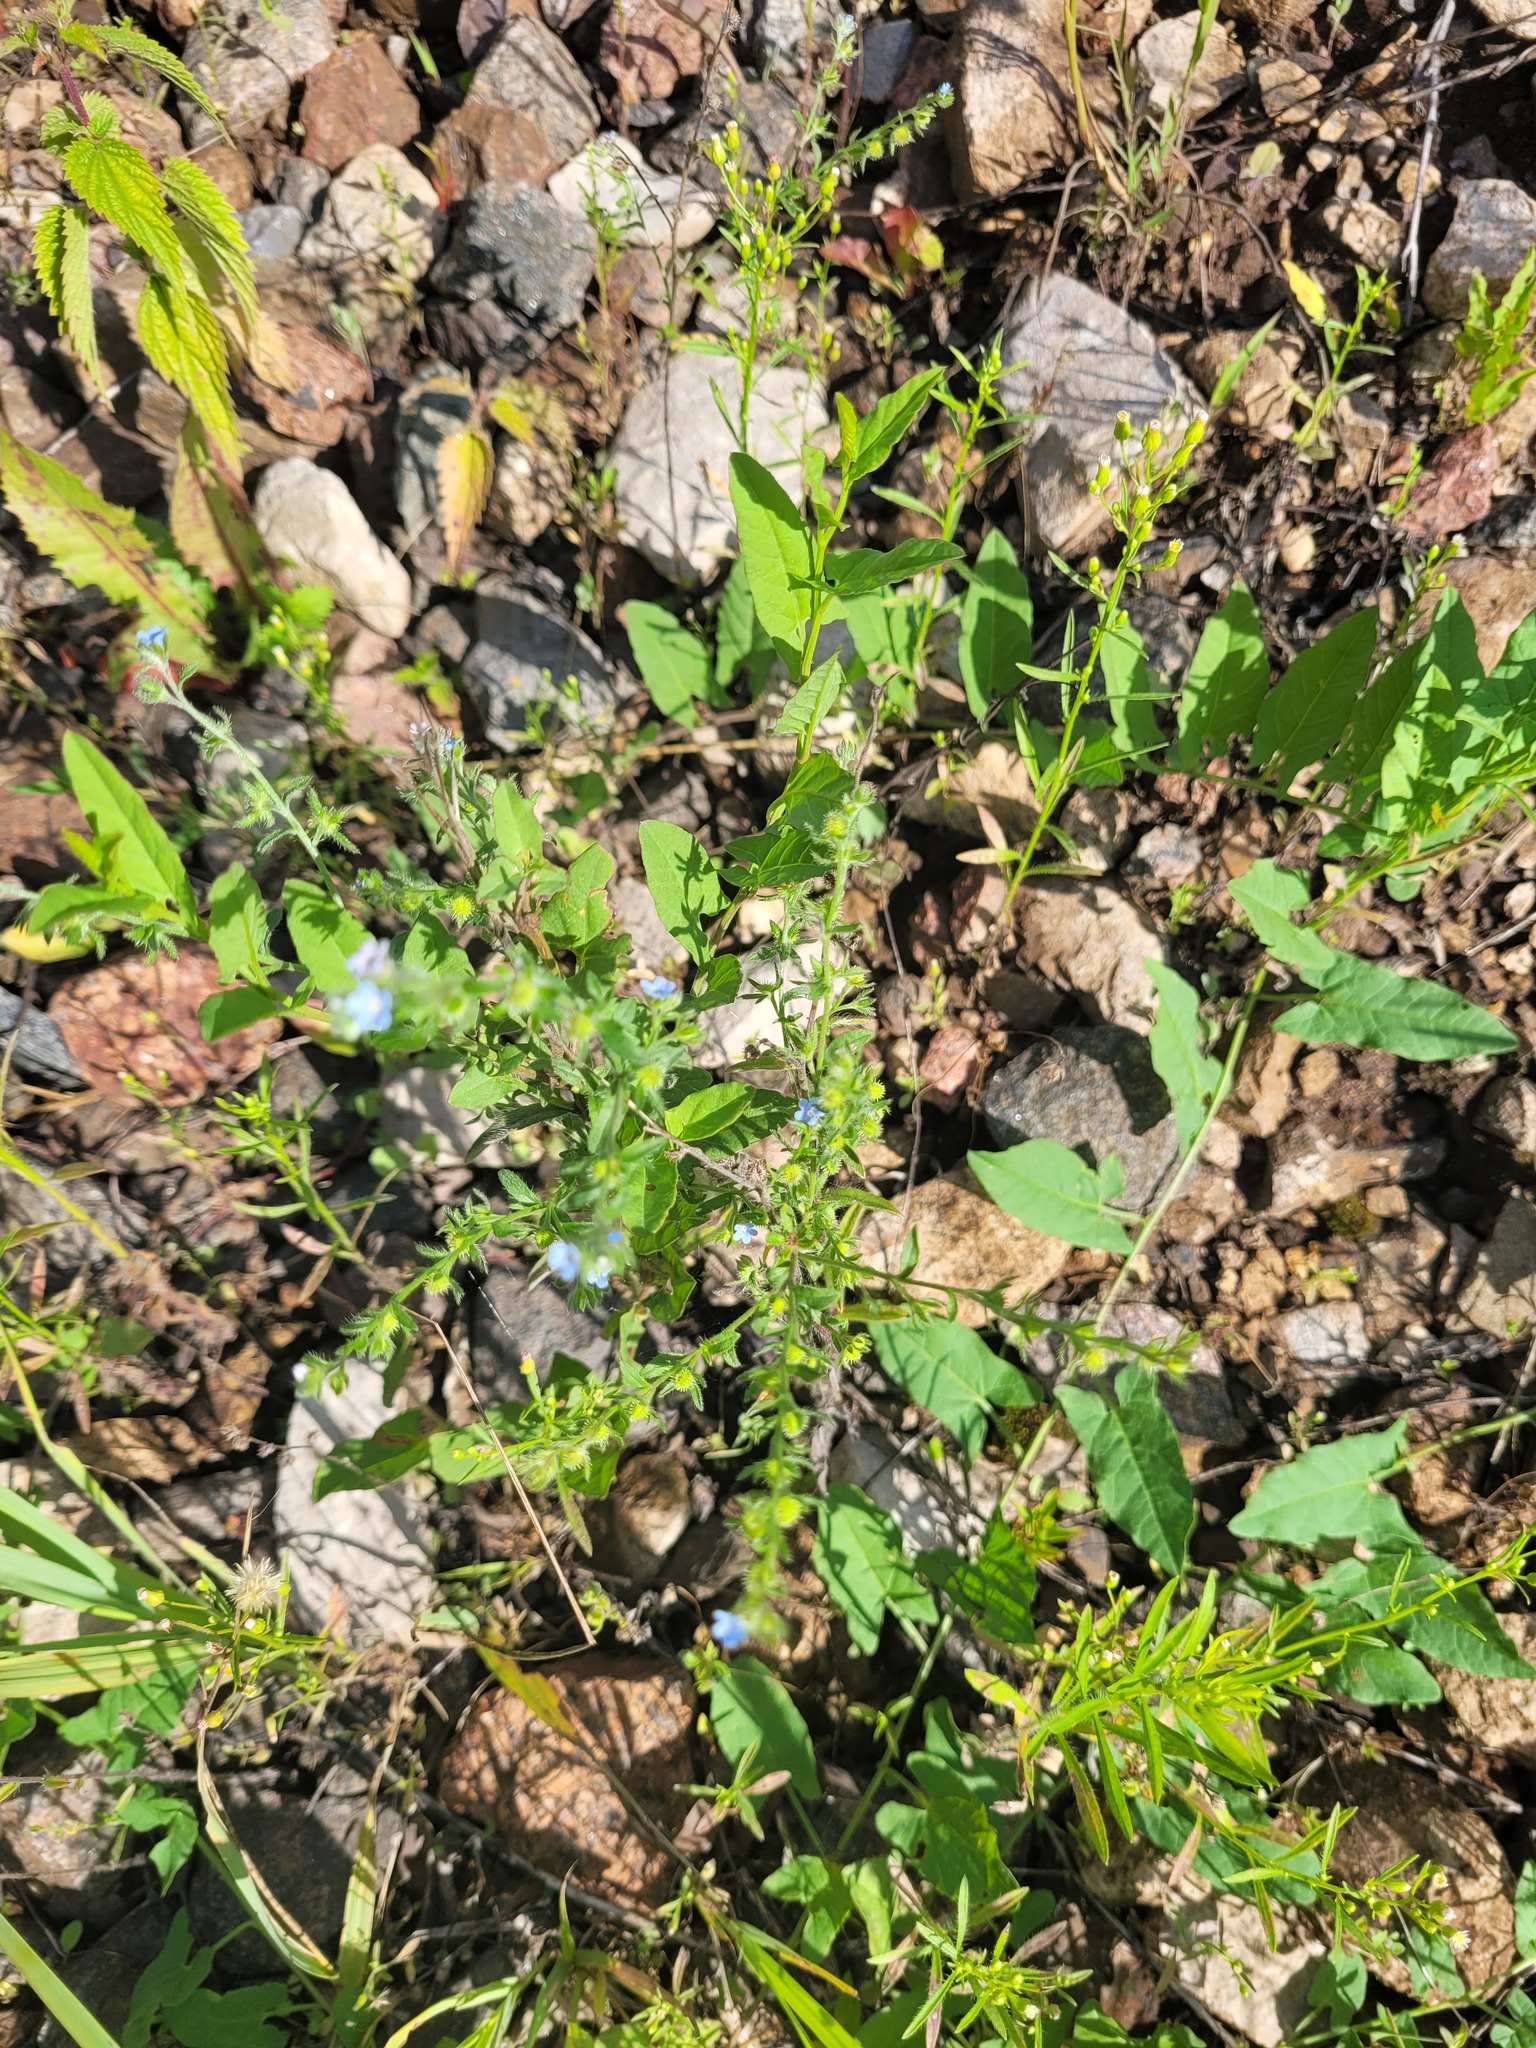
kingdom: Plantae
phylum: Tracheophyta
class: Magnoliopsida
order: Boraginales
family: Boraginaceae
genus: Lappula
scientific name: Lappula squarrosa
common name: European stickseed
